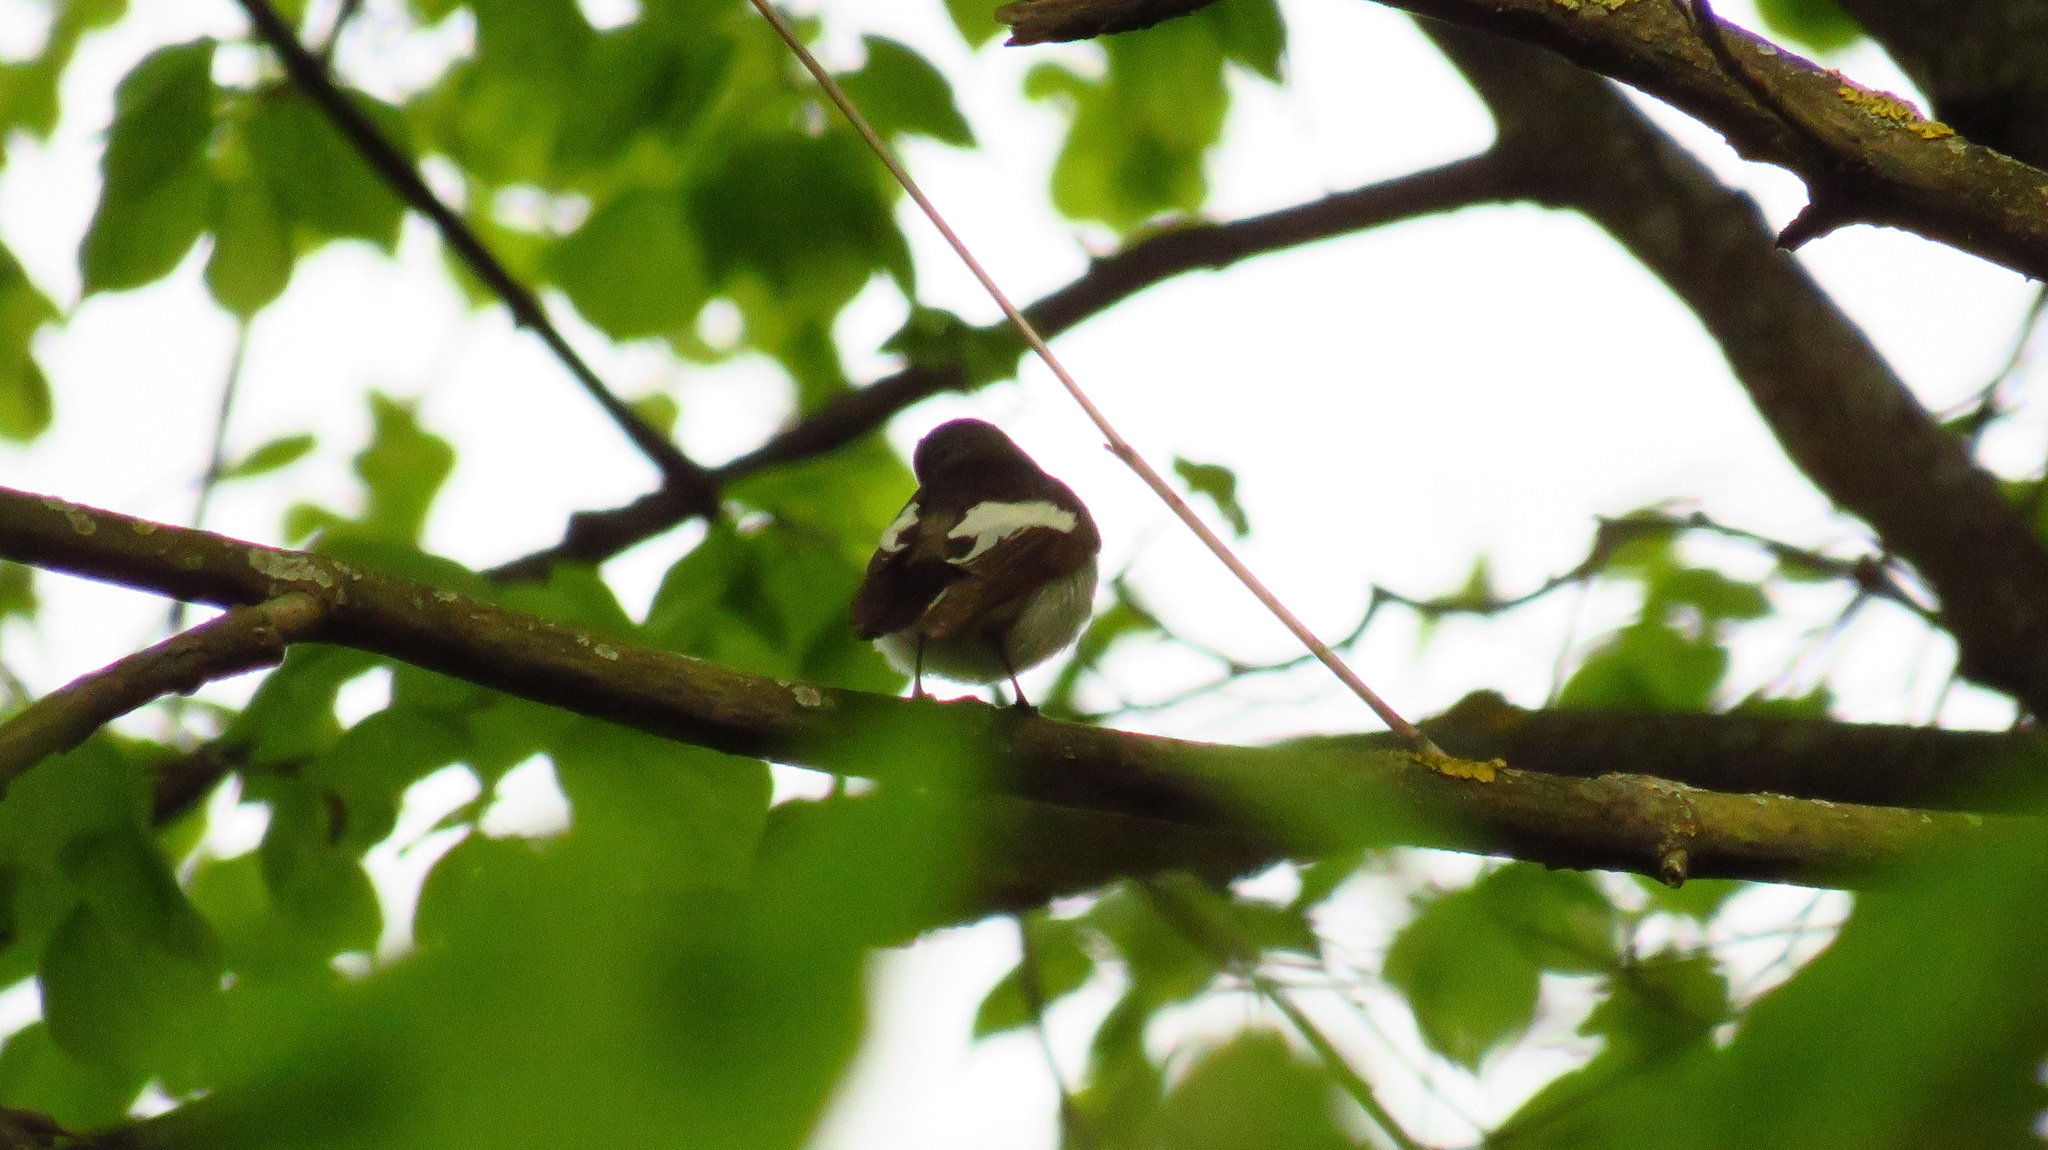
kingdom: Animalia
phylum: Chordata
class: Aves
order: Passeriformes
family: Muscicapidae
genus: Ficedula
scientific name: Ficedula hypoleuca
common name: European pied flycatcher
